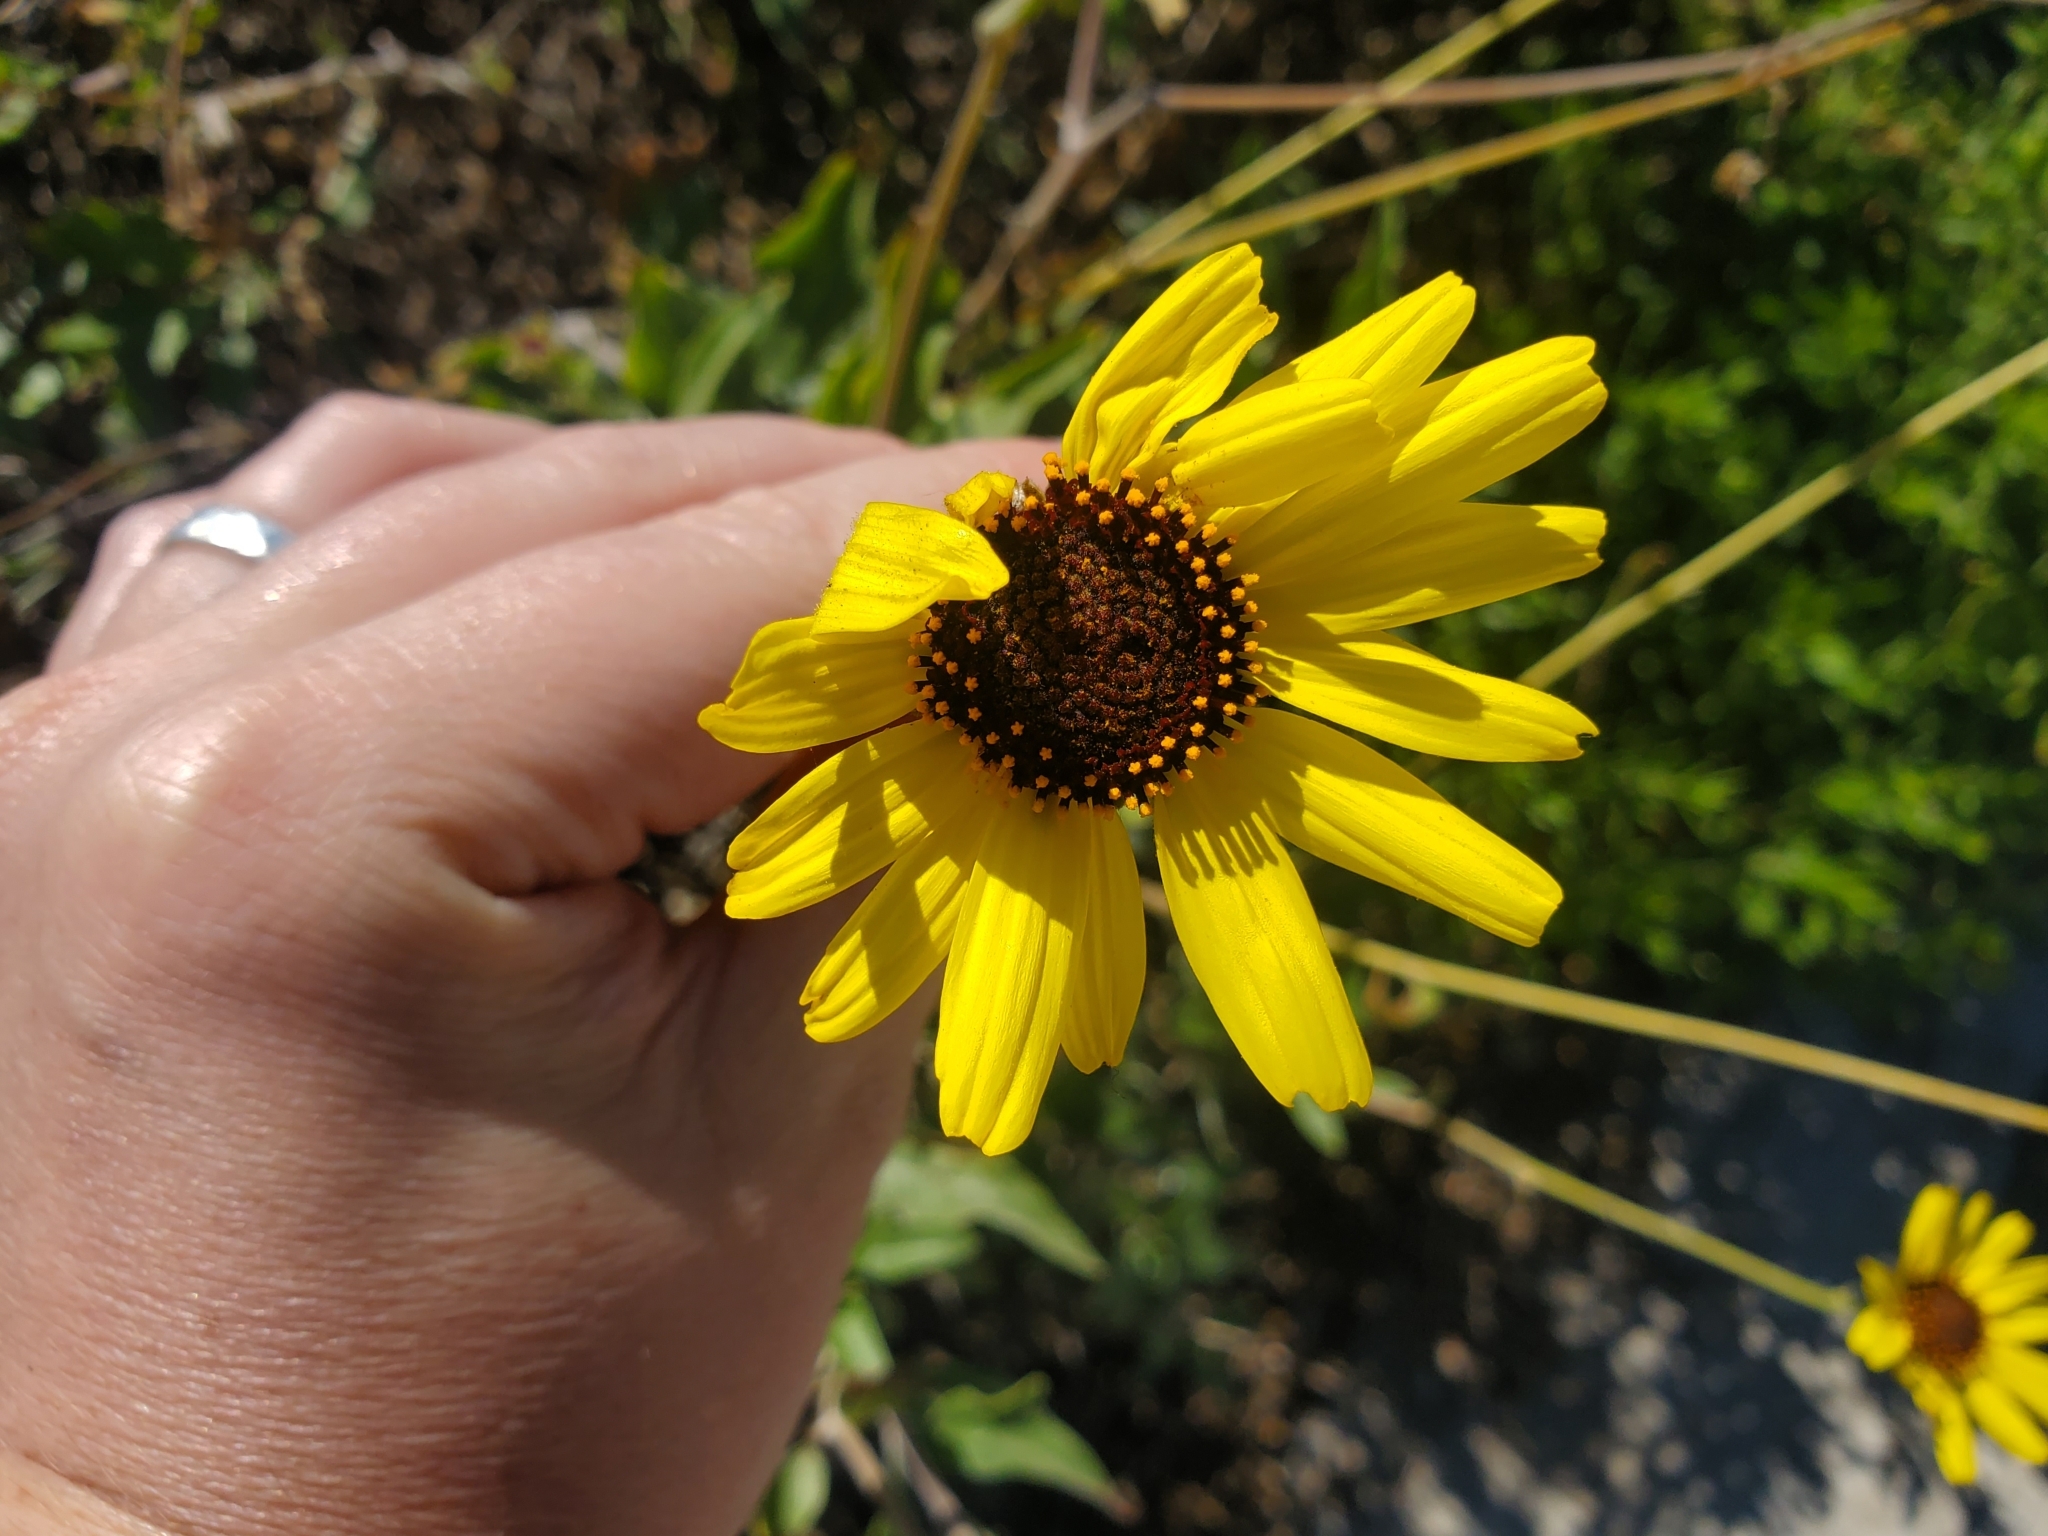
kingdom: Plantae
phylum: Tracheophyta
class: Magnoliopsida
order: Asterales
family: Asteraceae
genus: Encelia
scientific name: Encelia californica
